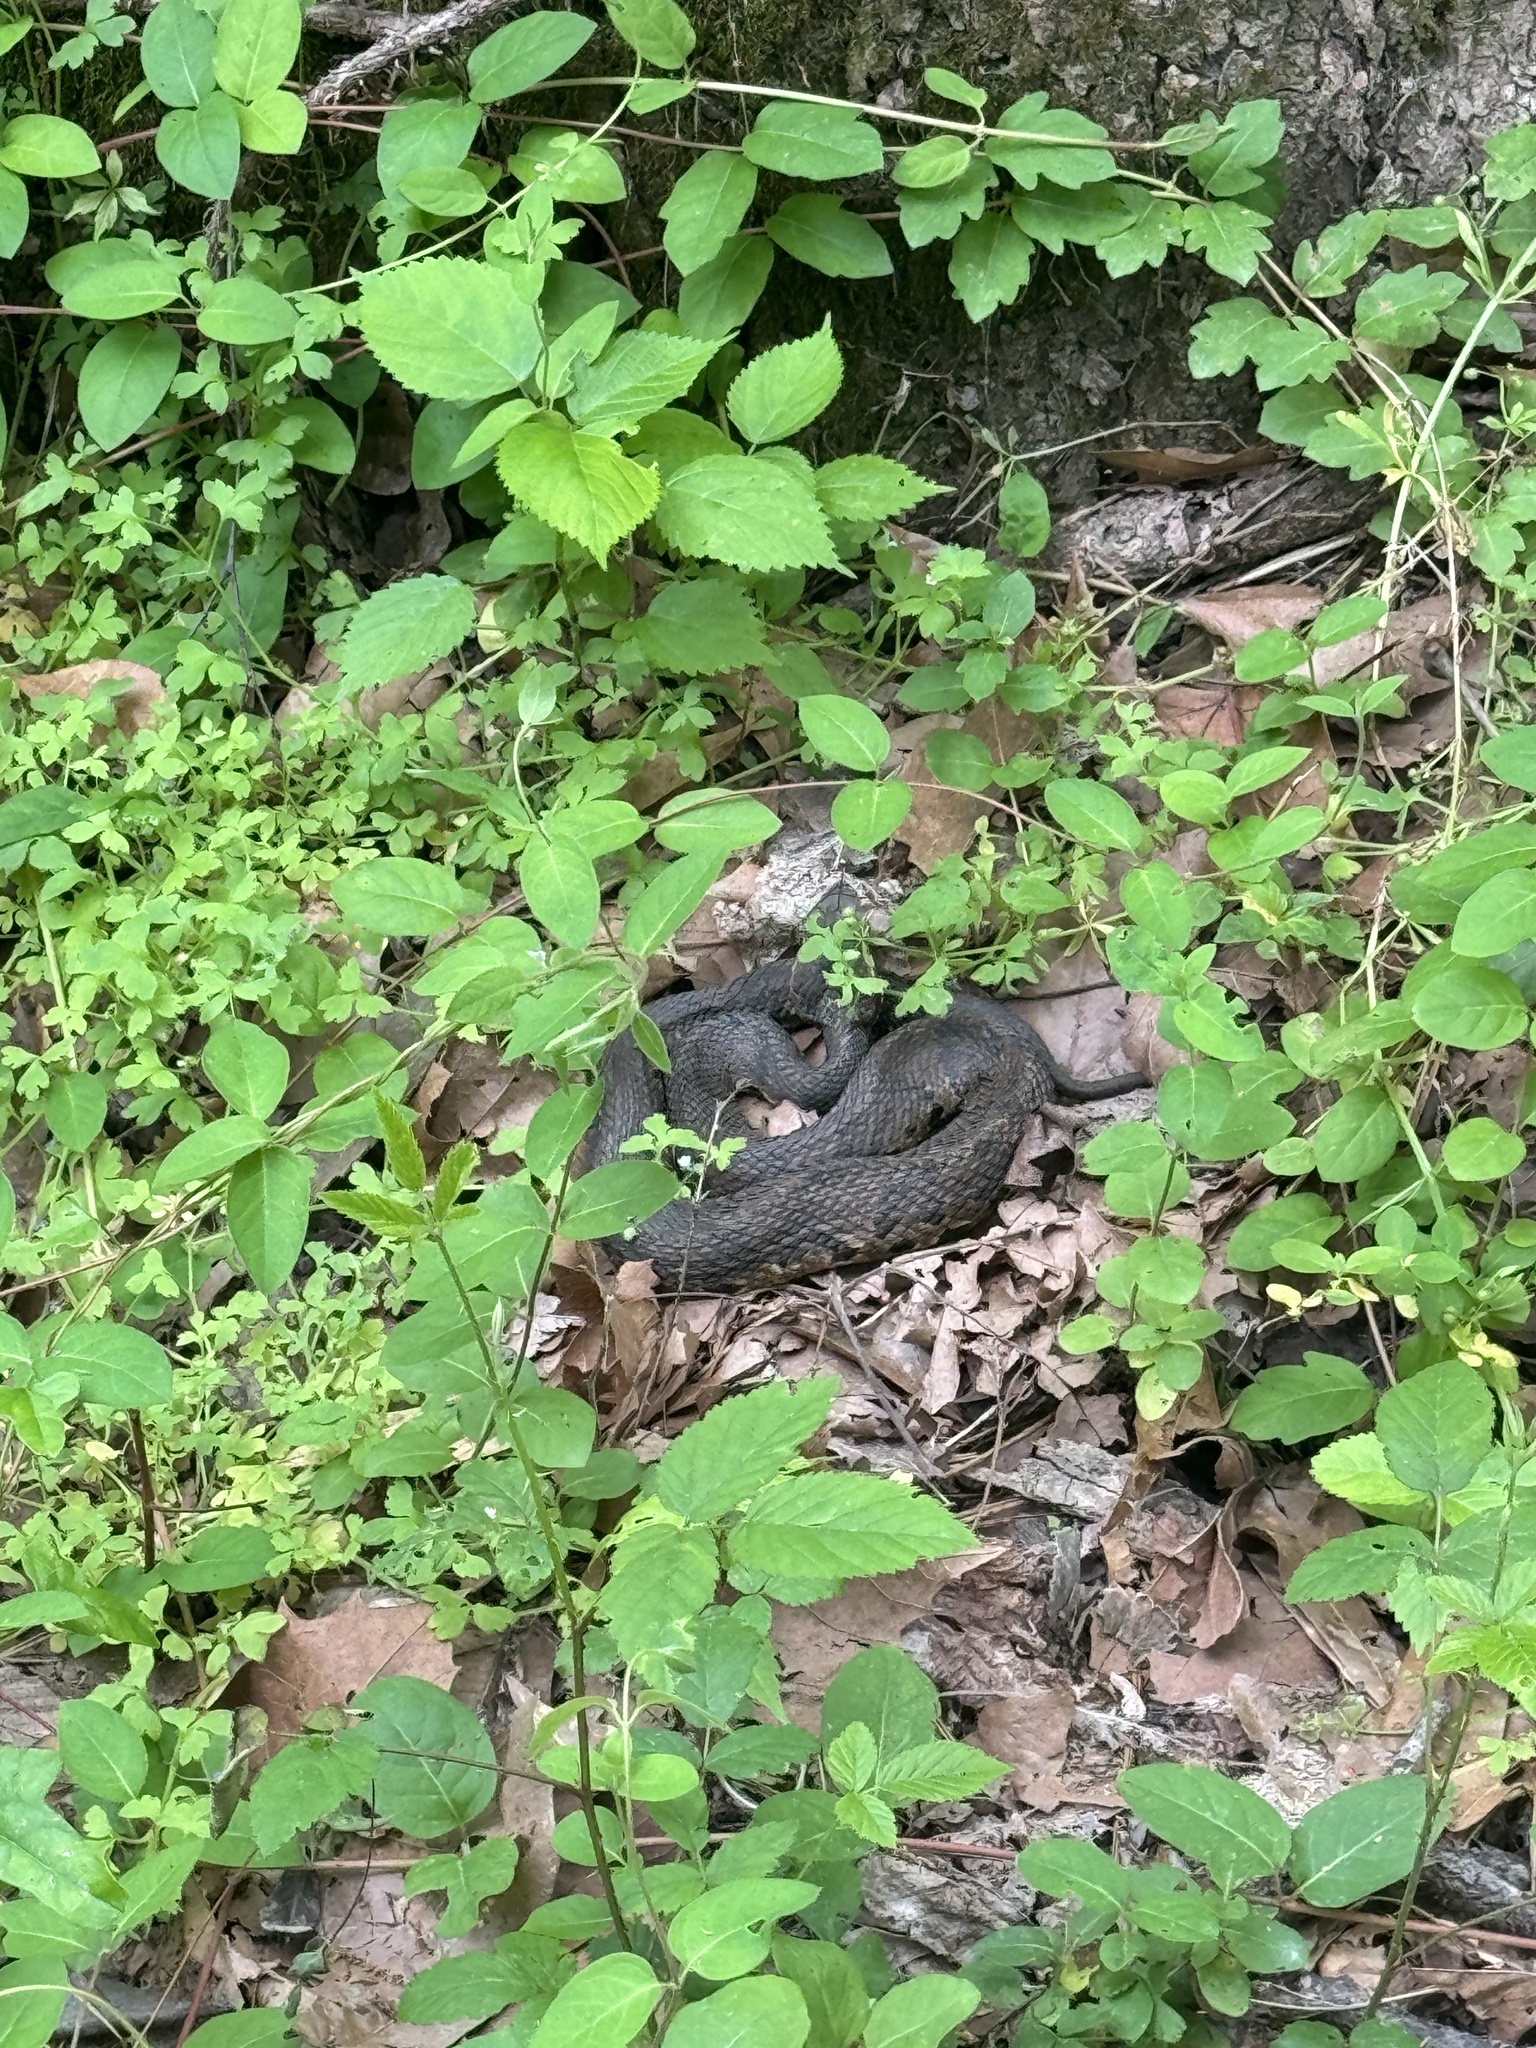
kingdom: Animalia
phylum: Chordata
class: Squamata
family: Viperidae
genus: Agkistrodon
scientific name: Agkistrodon piscivorus
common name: Cottonmouth
